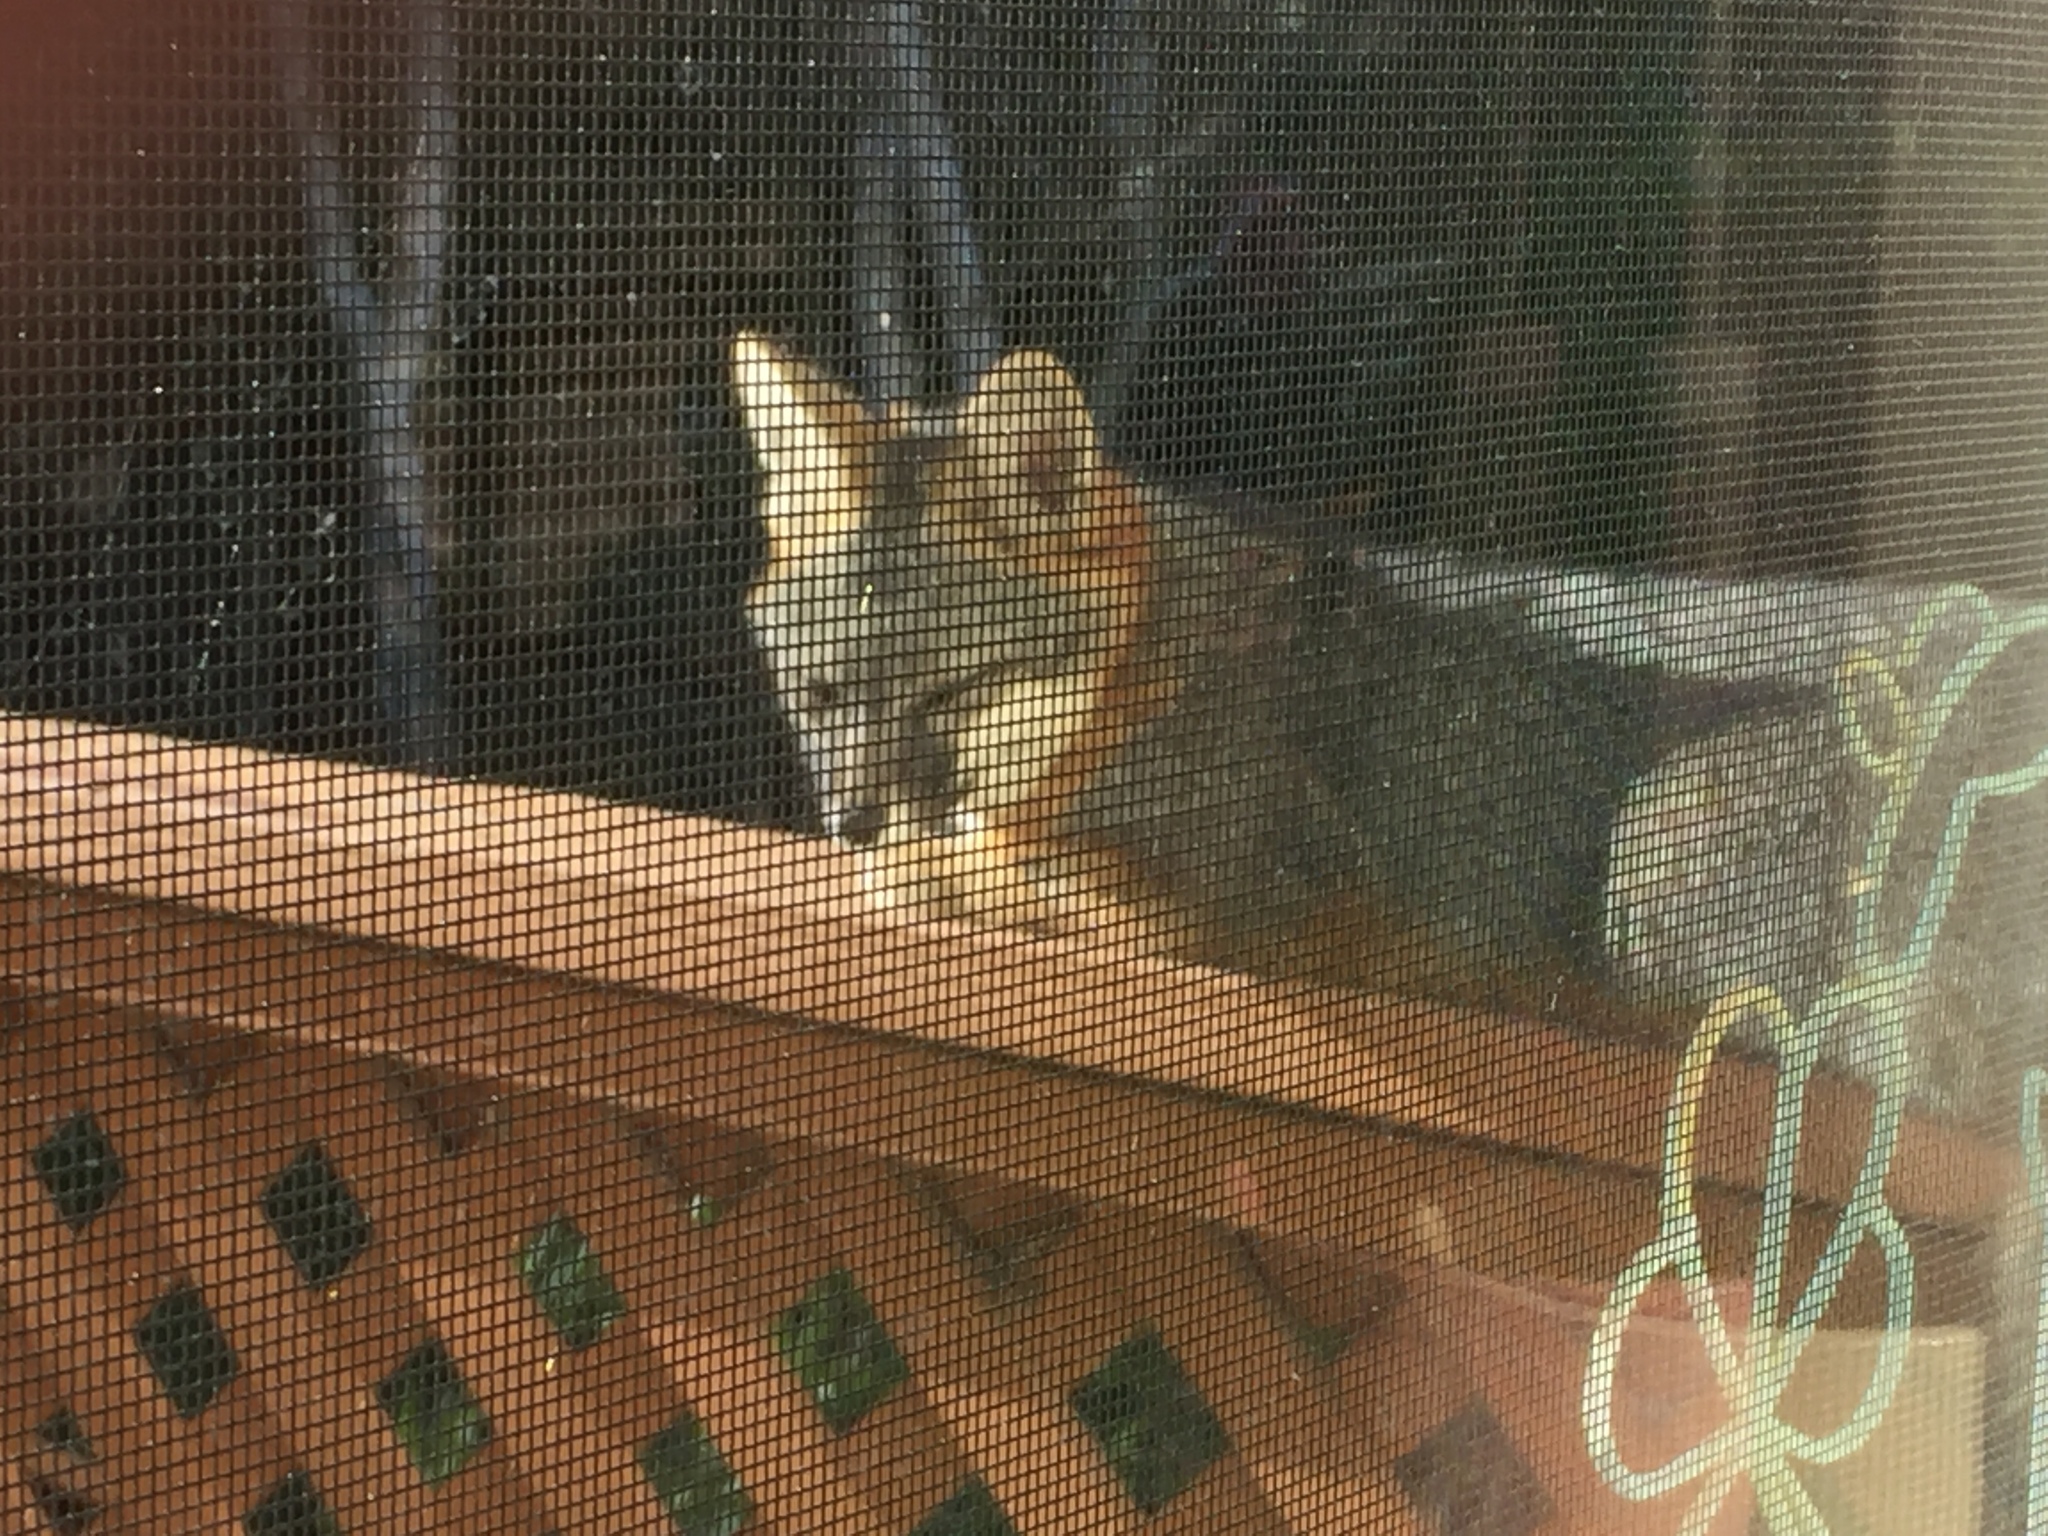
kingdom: Animalia
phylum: Chordata
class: Mammalia
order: Carnivora
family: Canidae
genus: Urocyon
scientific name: Urocyon cinereoargenteus
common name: Gray fox
